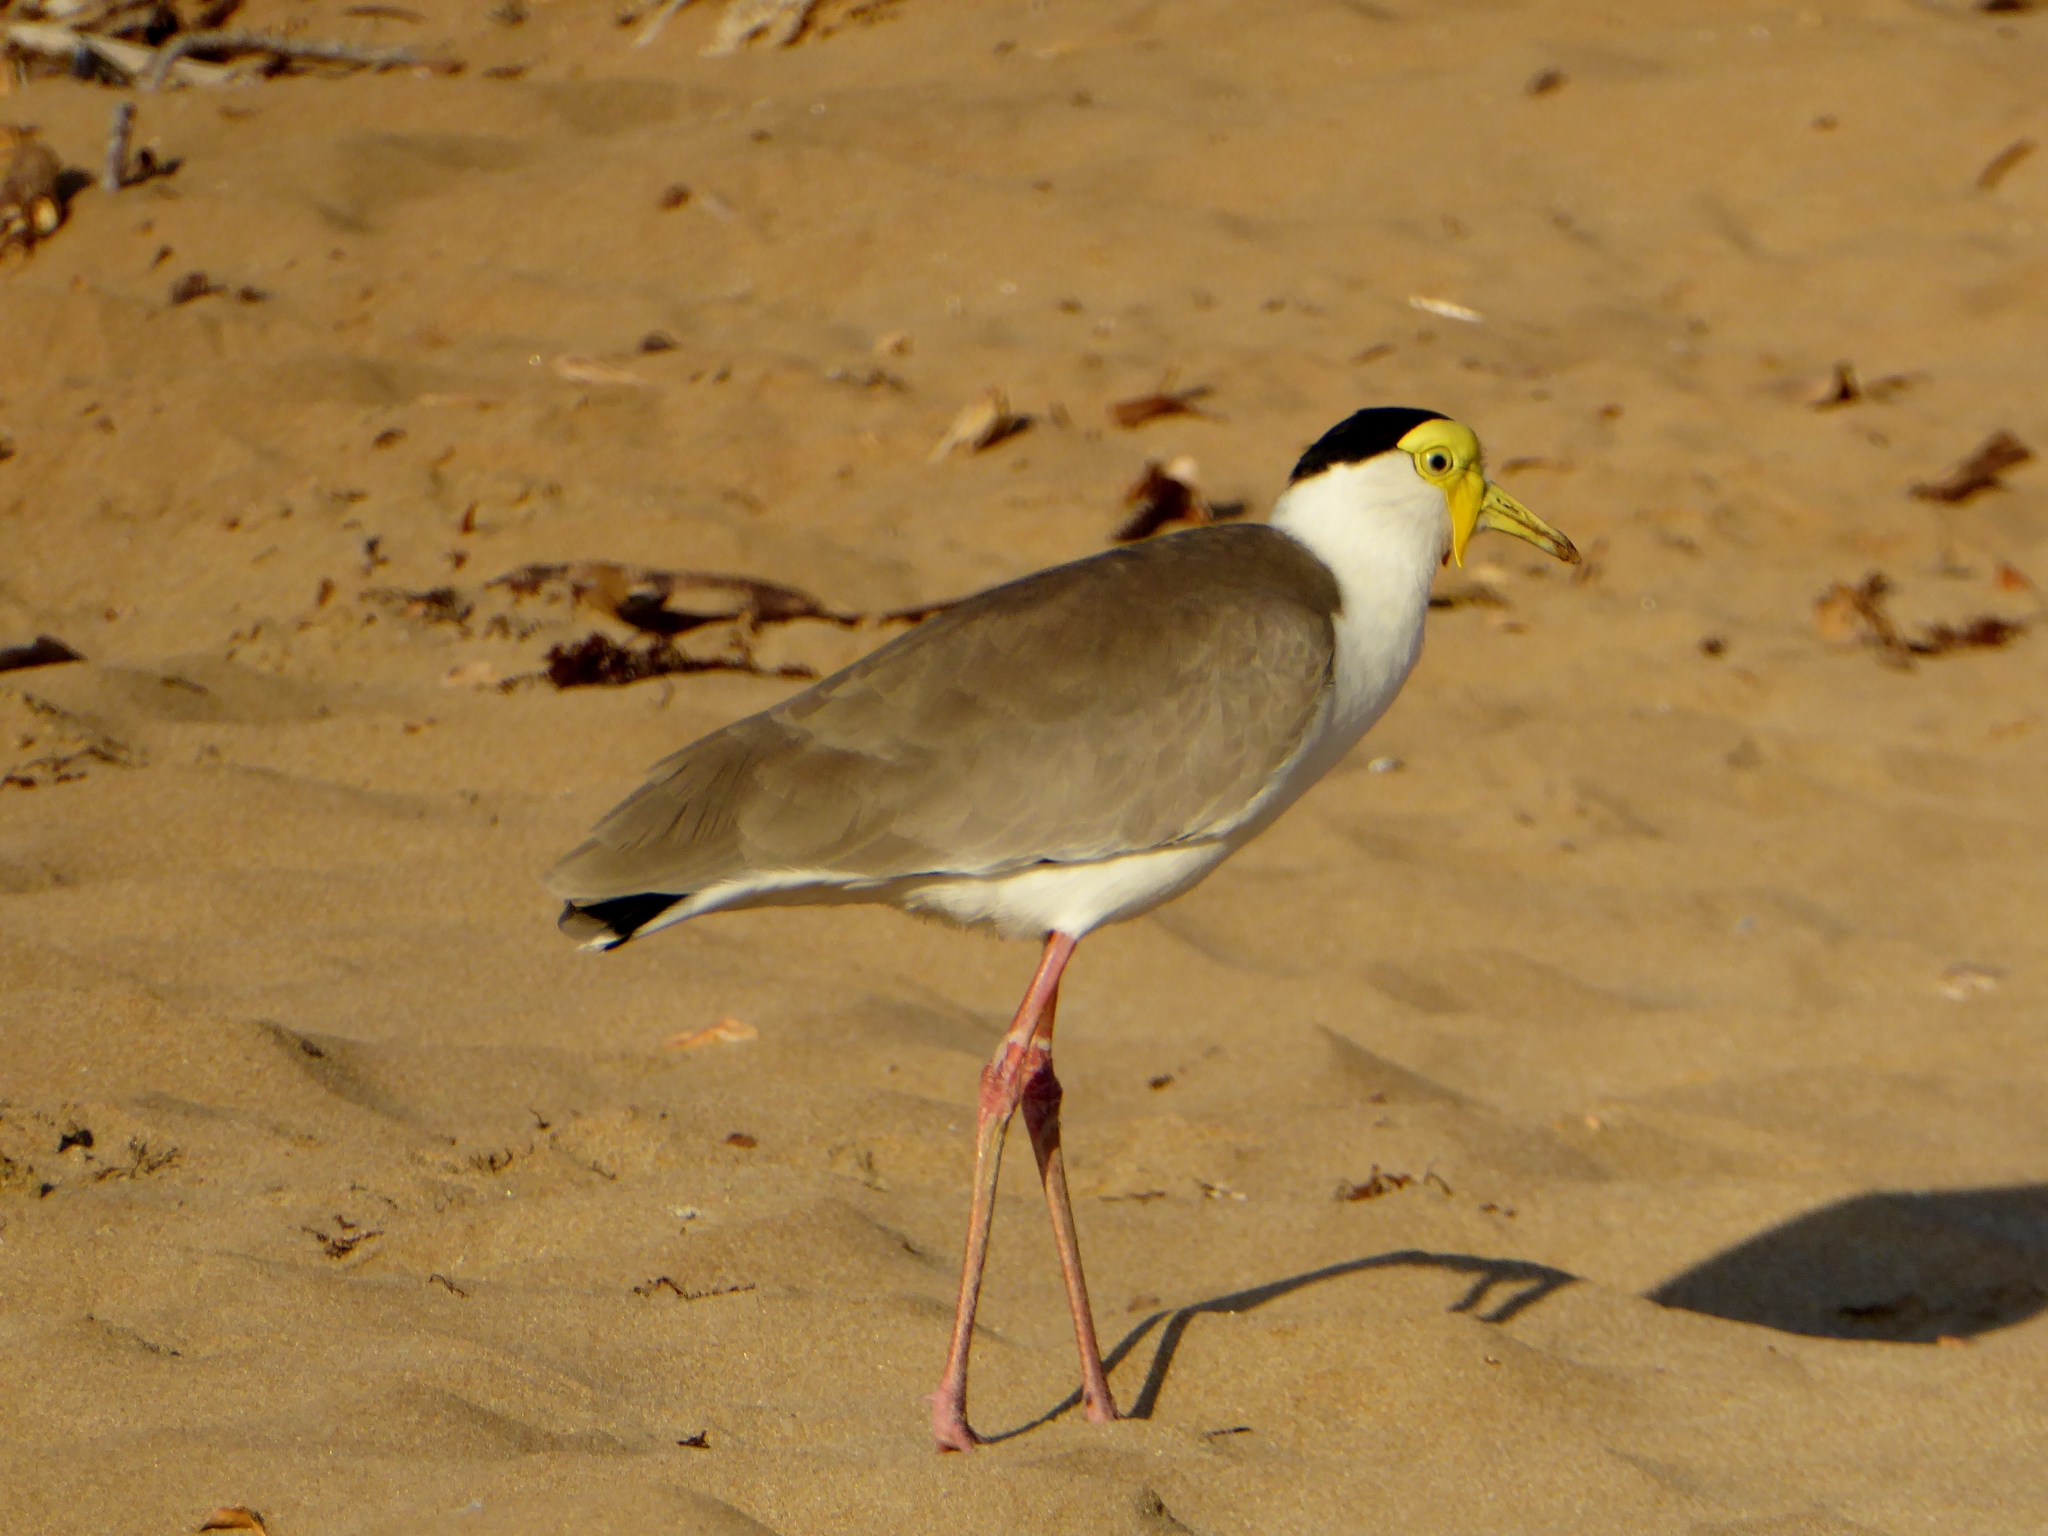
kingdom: Animalia
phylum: Chordata
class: Aves
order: Charadriiformes
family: Charadriidae
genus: Vanellus
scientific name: Vanellus miles
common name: Masked lapwing
